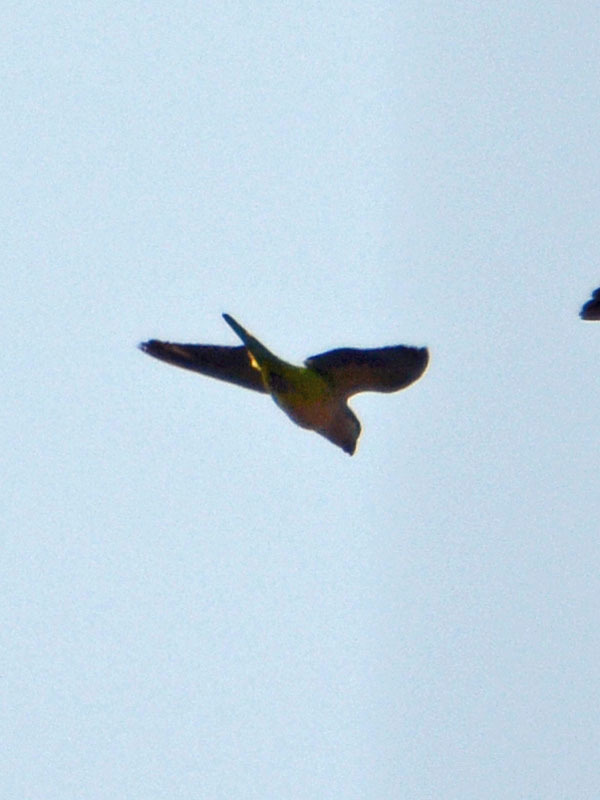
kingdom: Animalia
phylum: Chordata
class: Aves
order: Psittaciformes
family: Psittacidae
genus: Myiopsitta
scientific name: Myiopsitta monachus
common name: Monk parakeet
